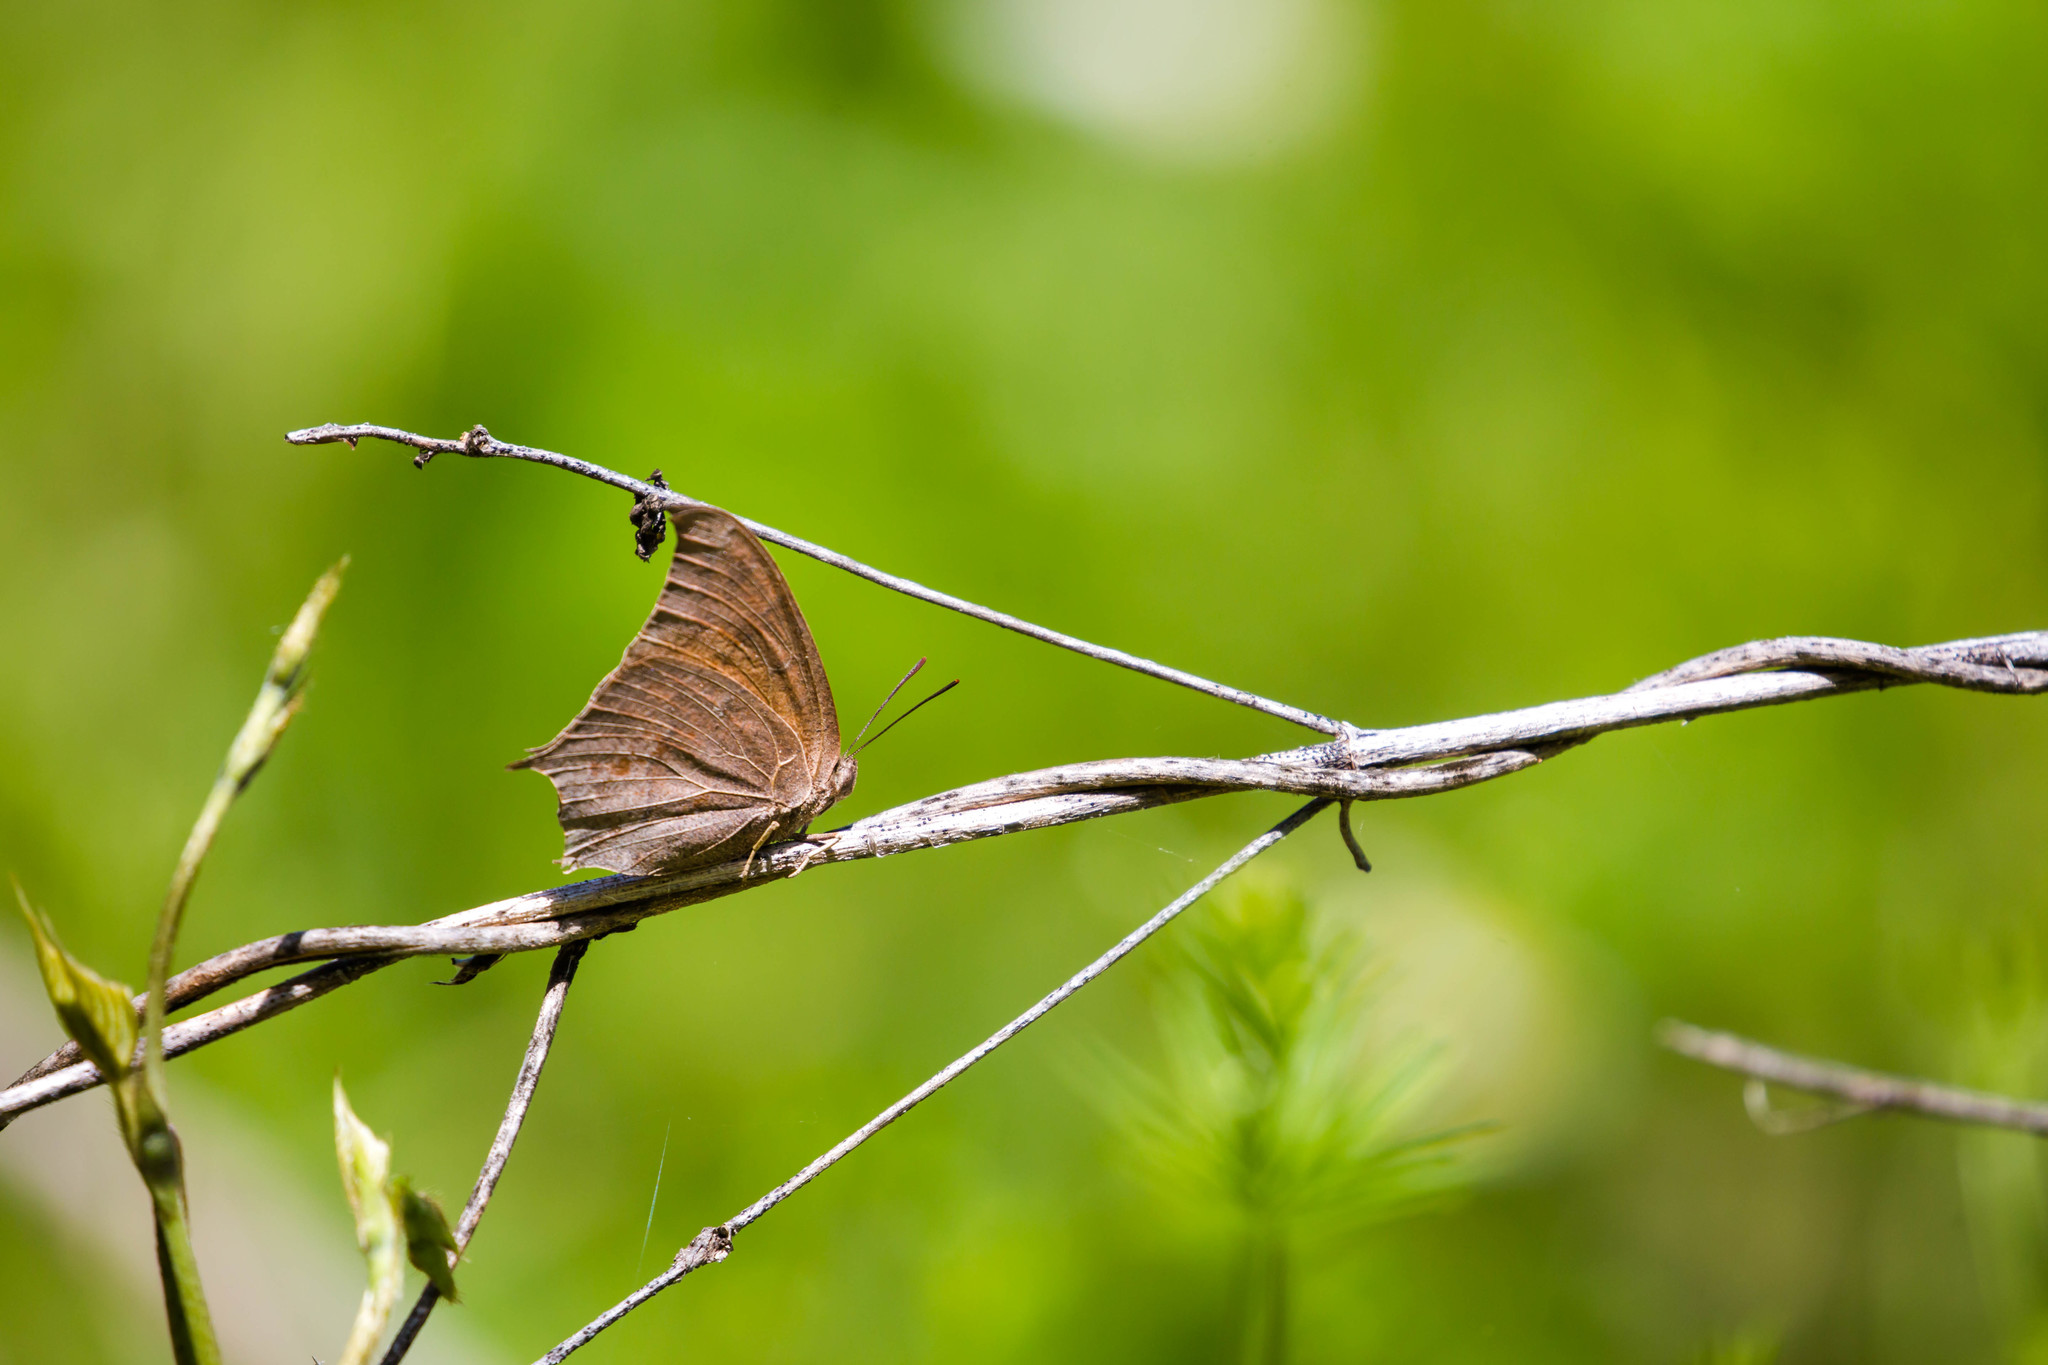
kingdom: Animalia
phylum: Arthropoda
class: Insecta
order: Lepidoptera
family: Nymphalidae
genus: Anaea
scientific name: Anaea andria
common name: Goatweed leafwing
